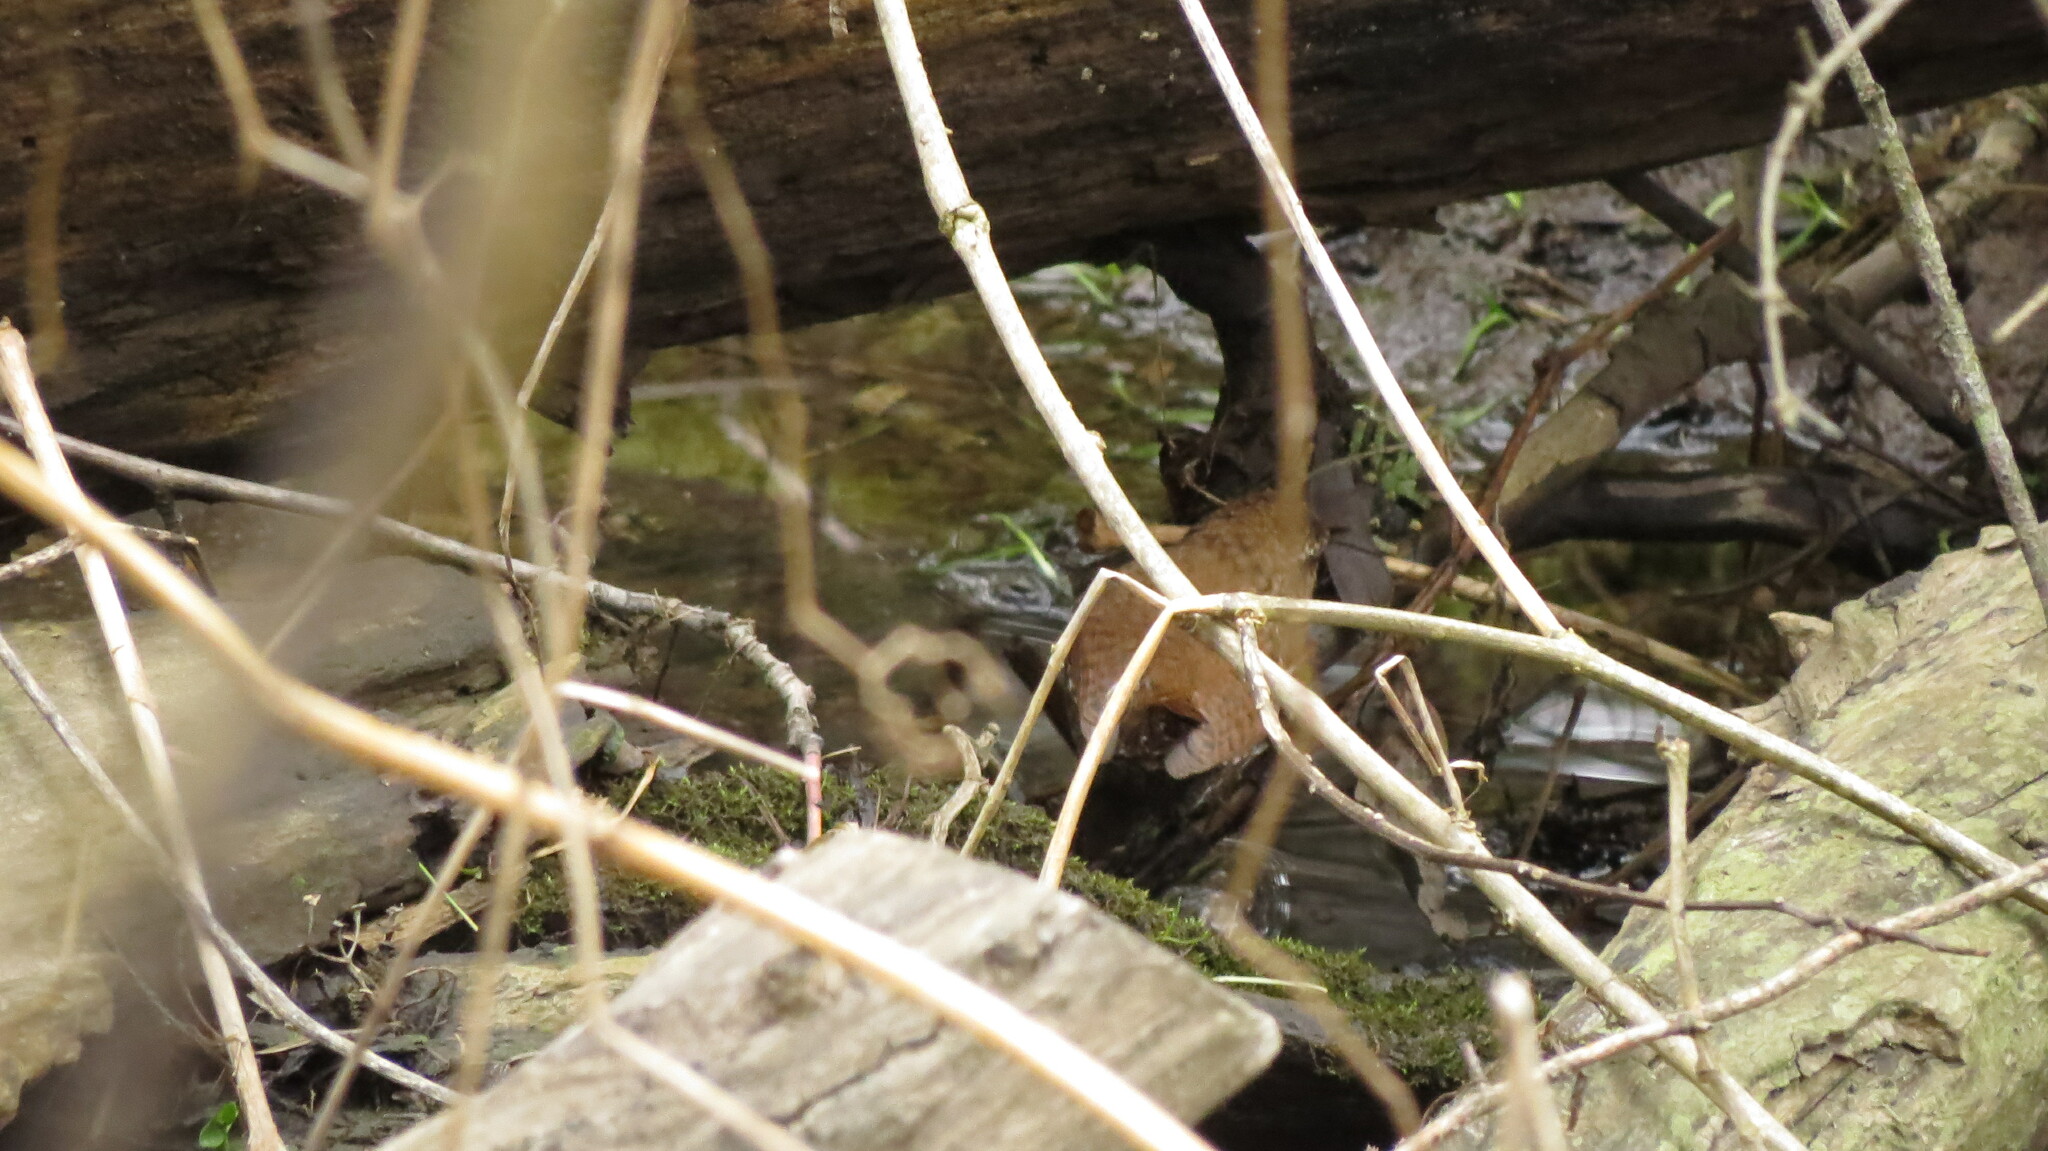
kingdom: Animalia
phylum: Chordata
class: Aves
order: Passeriformes
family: Troglodytidae
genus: Troglodytes
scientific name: Troglodytes hiemalis
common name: Winter wren
